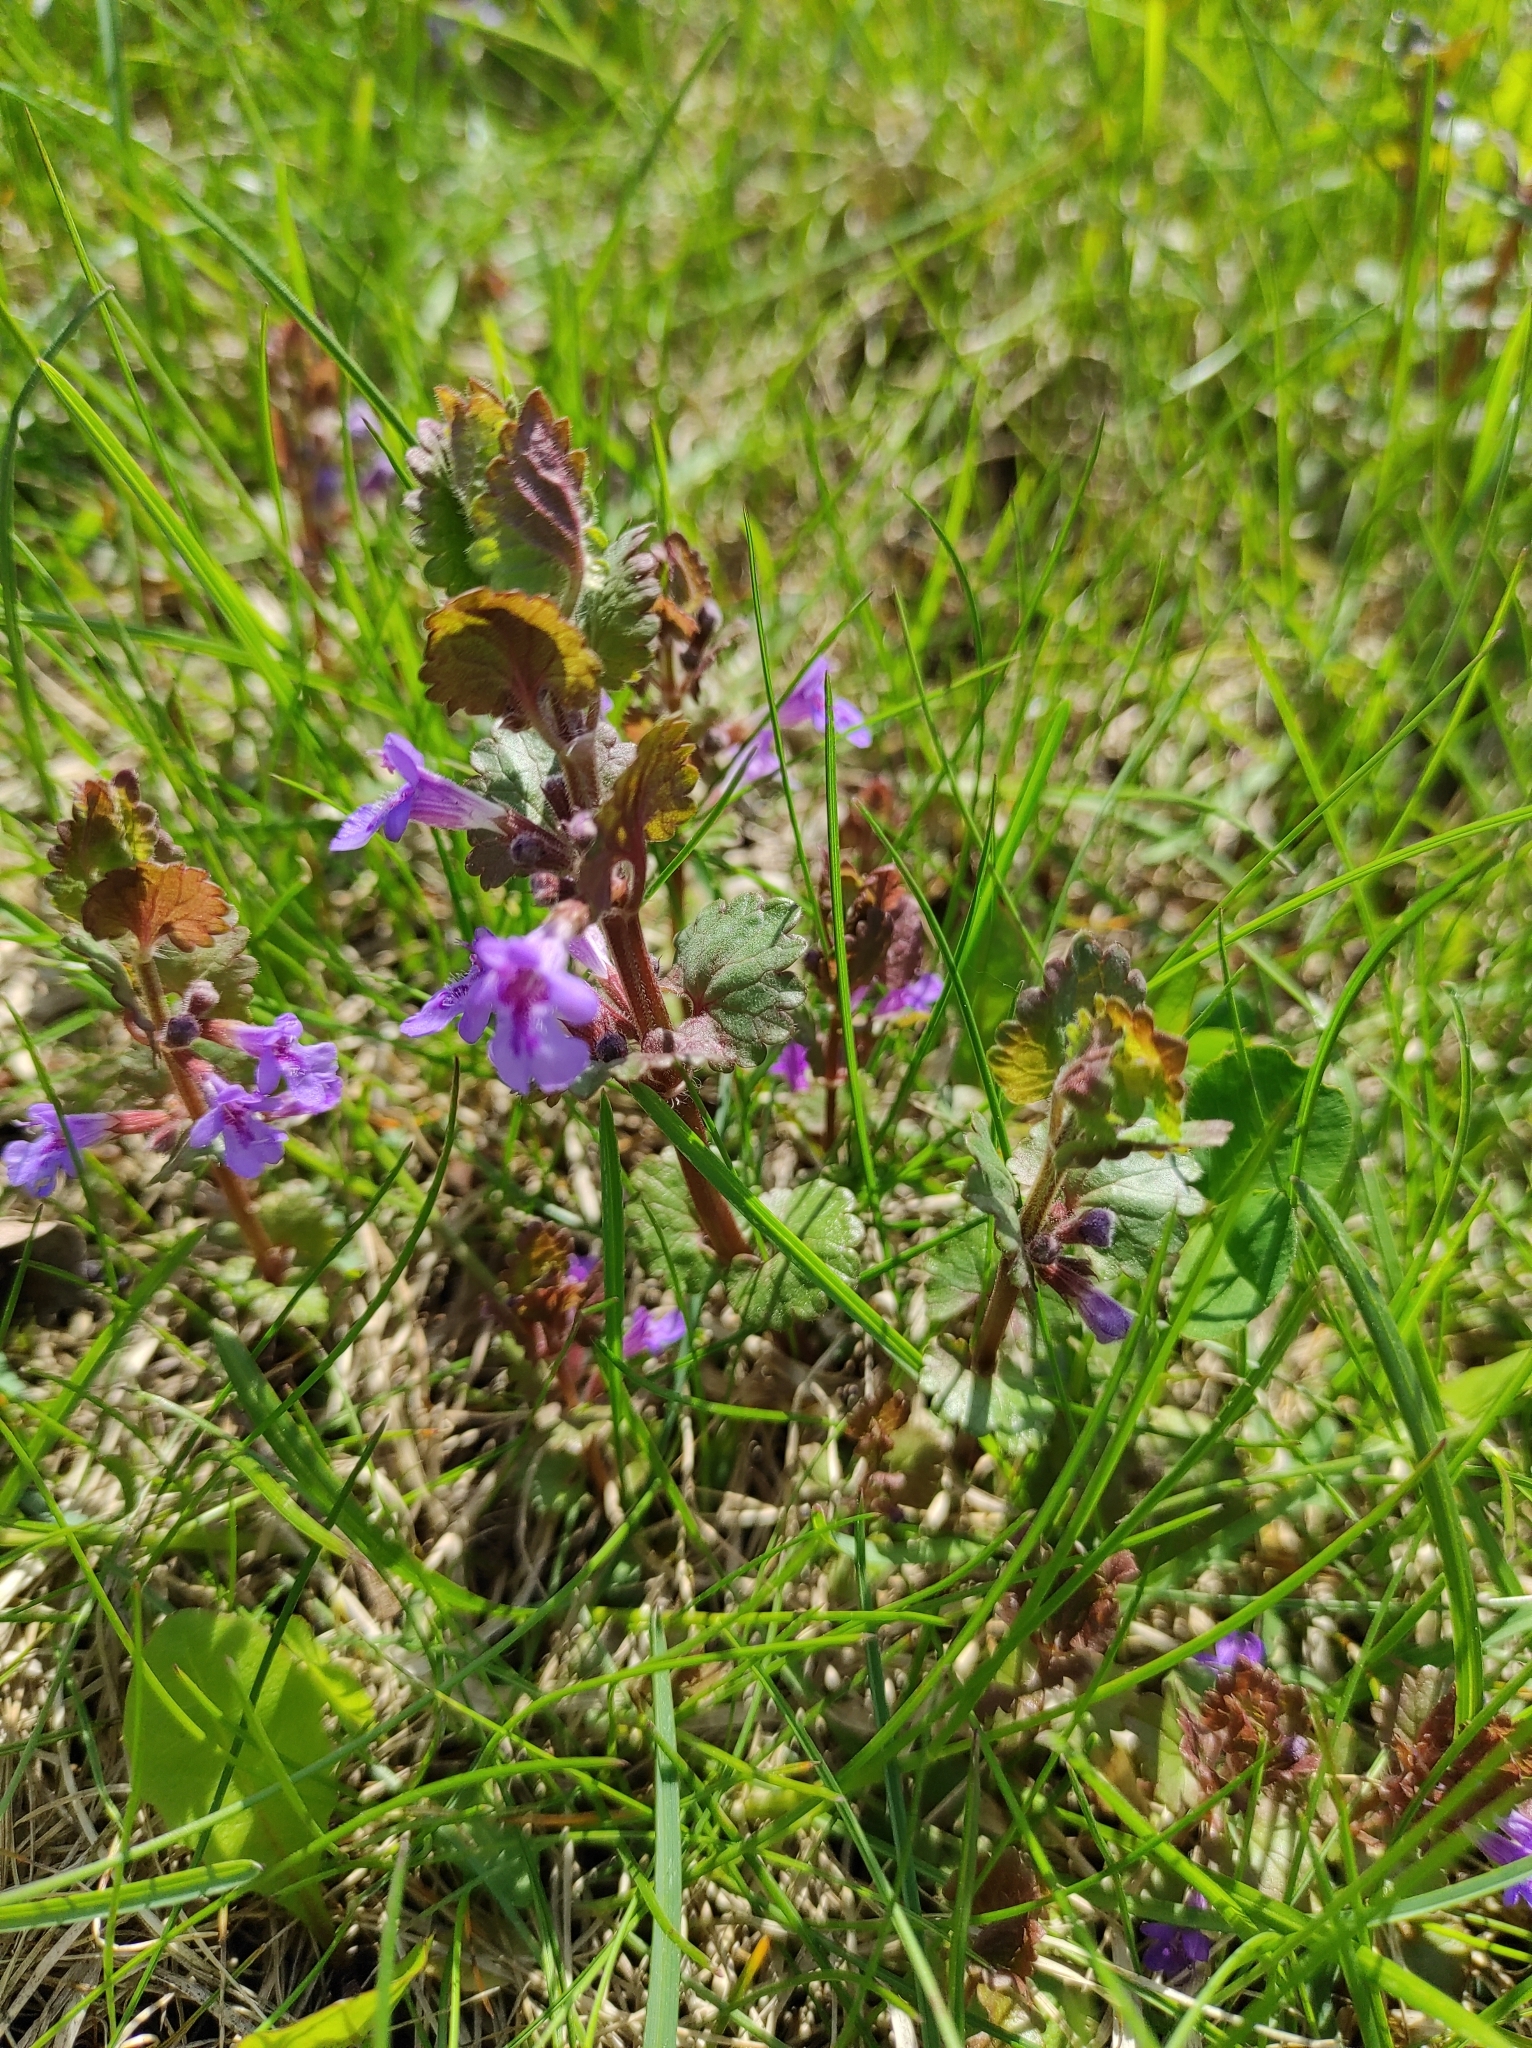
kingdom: Plantae
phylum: Tracheophyta
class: Magnoliopsida
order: Lamiales
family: Lamiaceae
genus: Glechoma
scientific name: Glechoma hederacea
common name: Ground ivy
